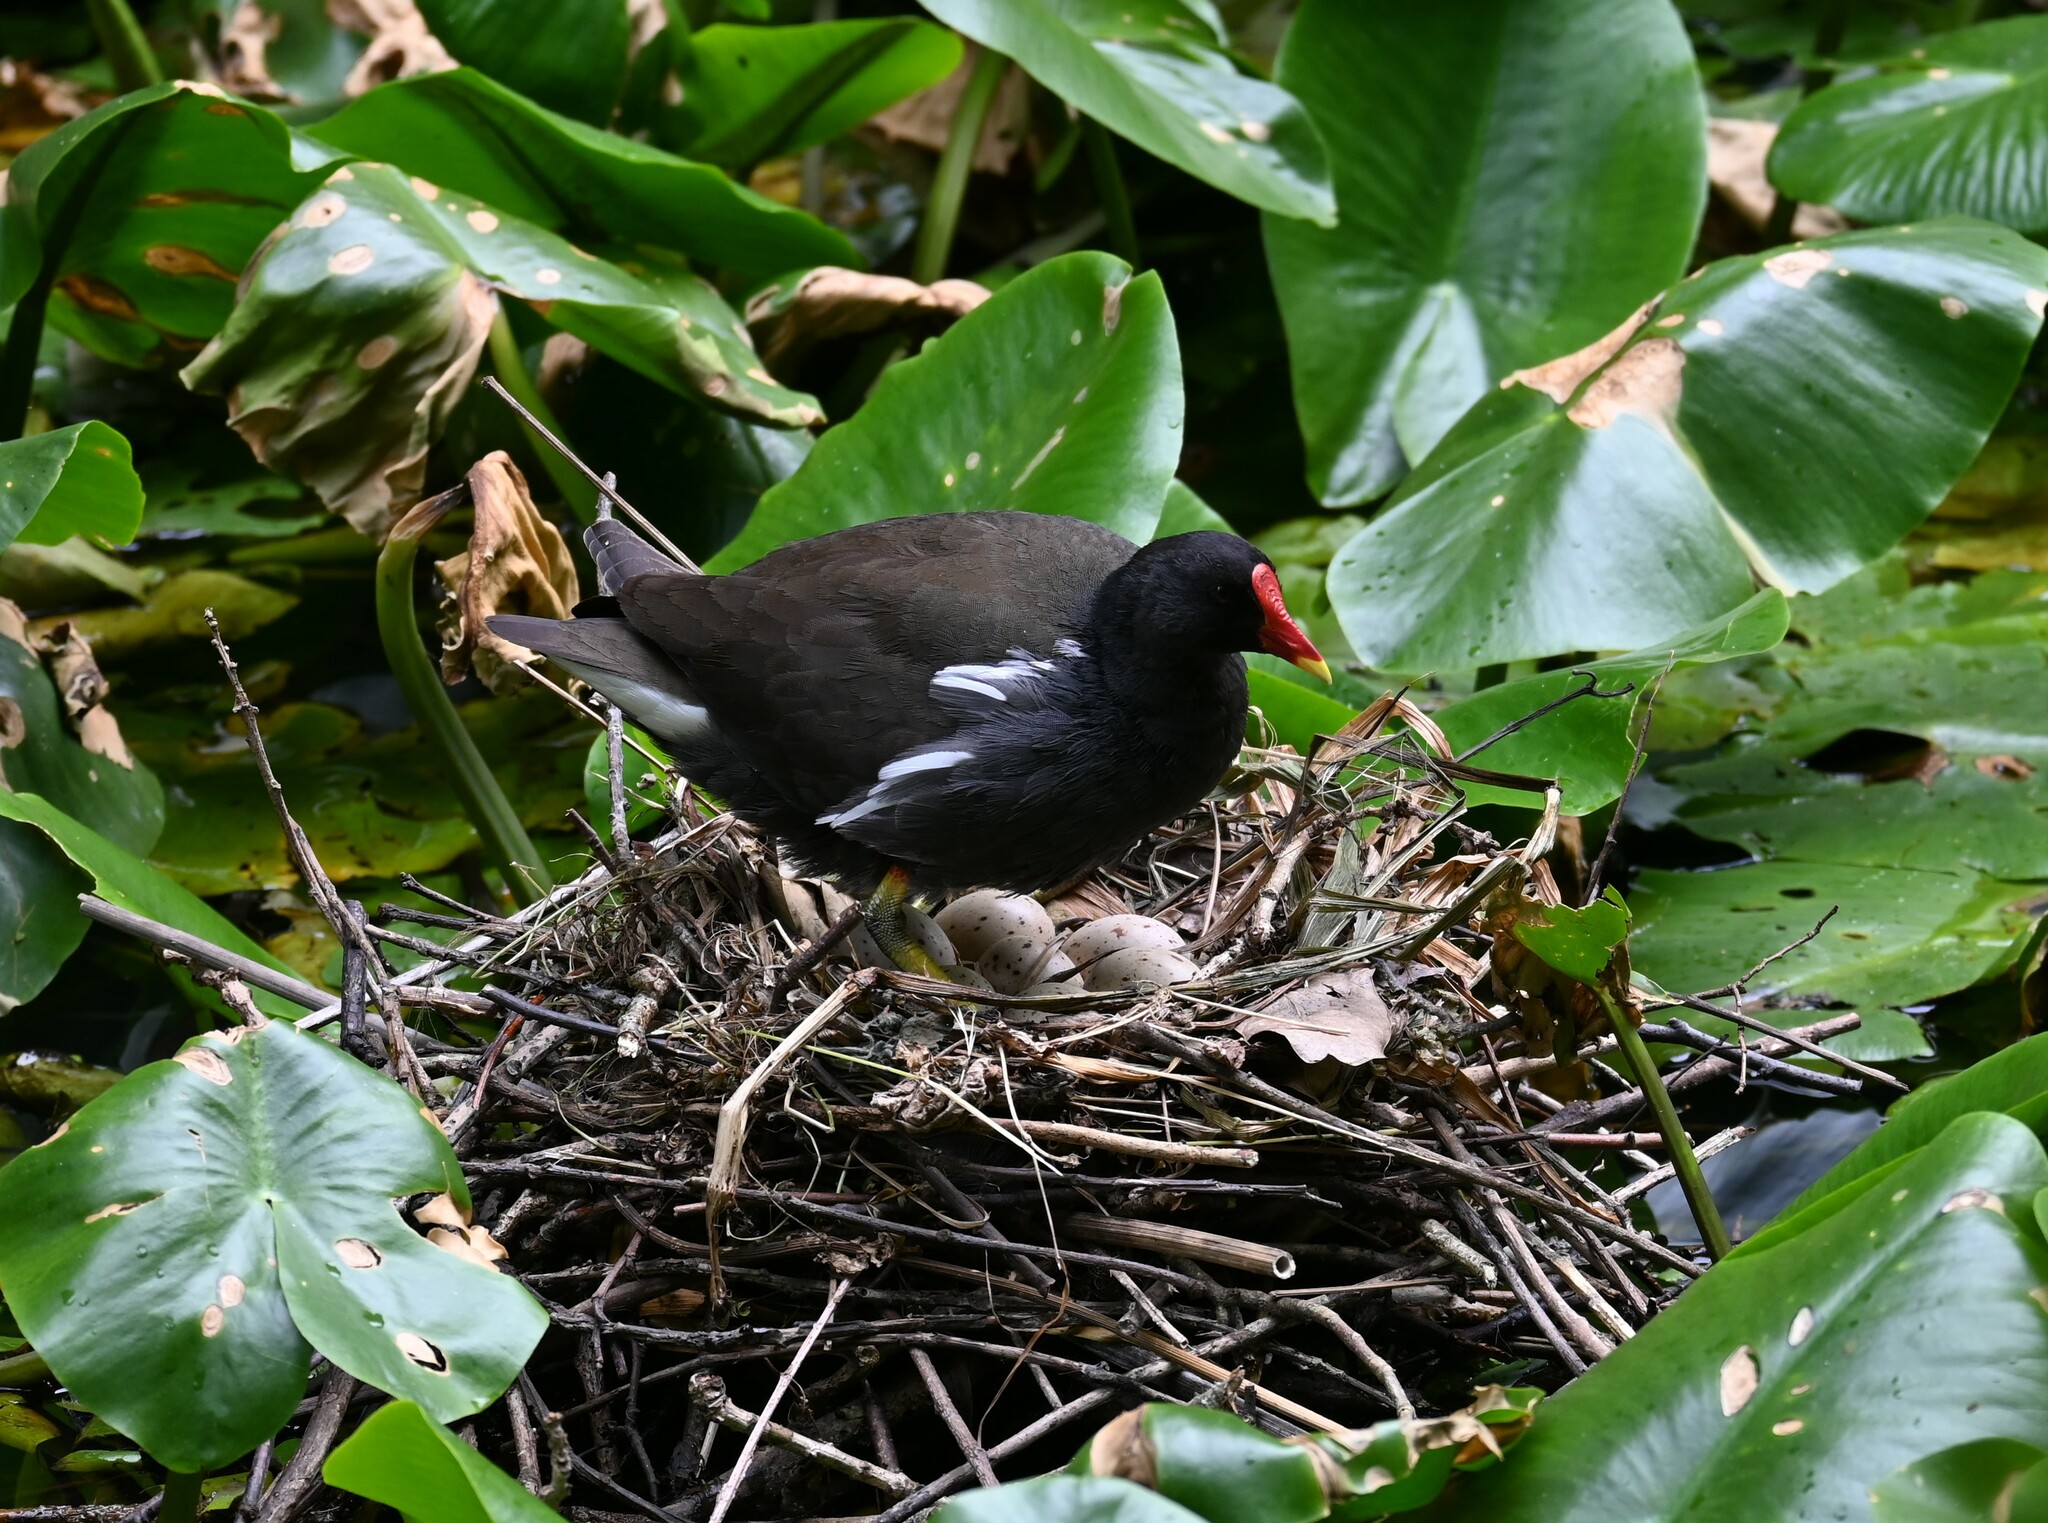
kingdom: Animalia
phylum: Chordata
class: Aves
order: Gruiformes
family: Rallidae
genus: Gallinula
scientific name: Gallinula chloropus
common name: Common moorhen
